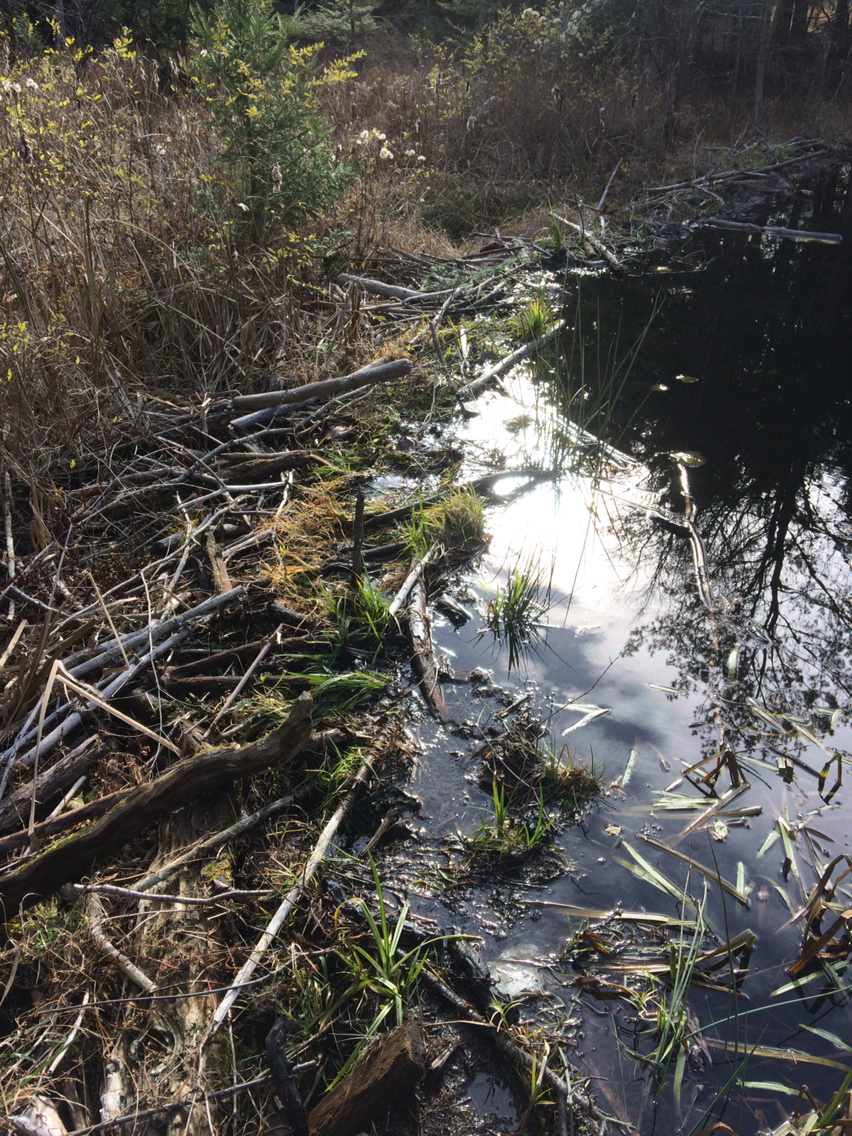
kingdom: Animalia
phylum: Chordata
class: Mammalia
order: Rodentia
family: Castoridae
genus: Castor
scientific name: Castor canadensis
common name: American beaver
